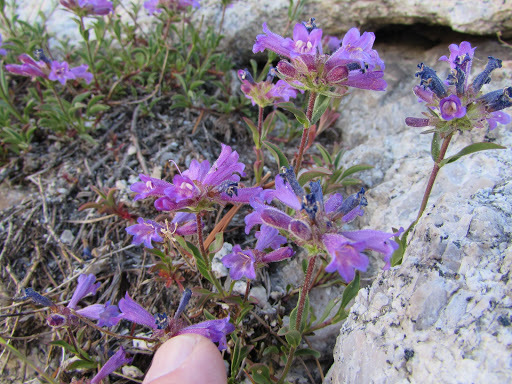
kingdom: Plantae
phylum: Tracheophyta
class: Magnoliopsida
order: Lamiales
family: Plantaginaceae
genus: Penstemon
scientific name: Penstemon heterodoxus
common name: Sierran penstemon
